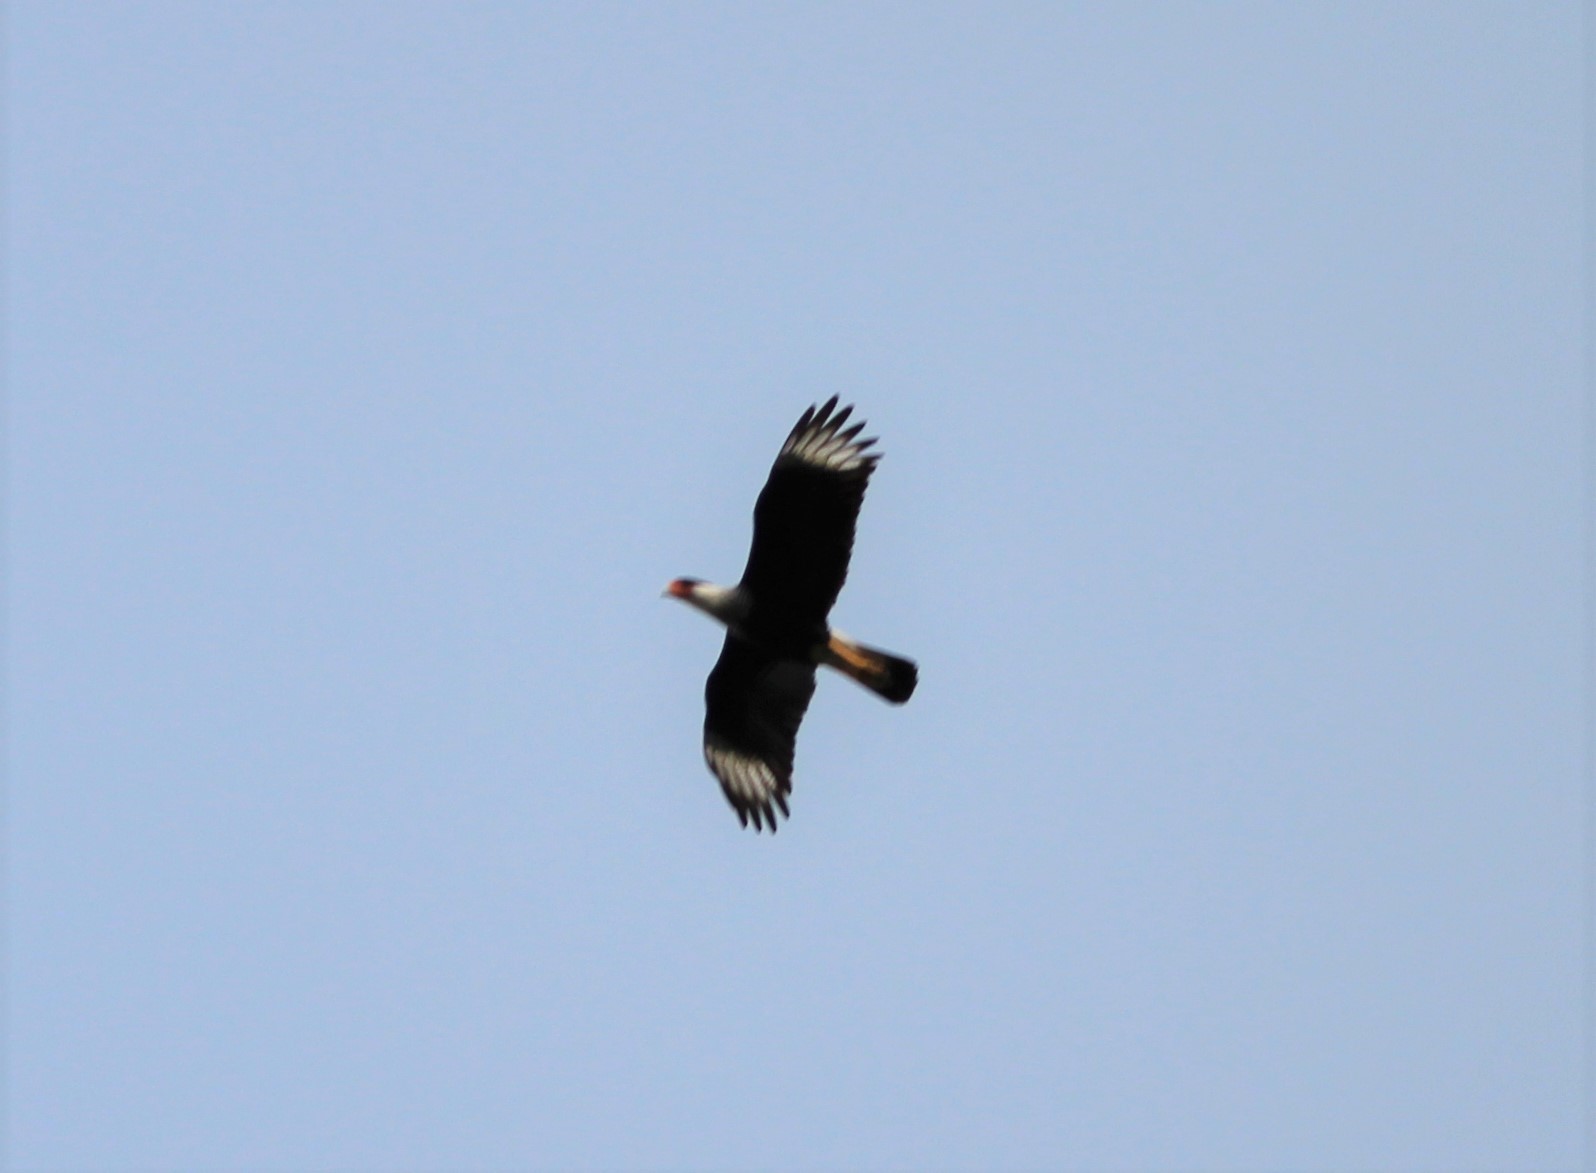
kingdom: Animalia
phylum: Chordata
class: Aves
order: Falconiformes
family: Falconidae
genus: Caracara
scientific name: Caracara plancus
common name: Southern caracara
